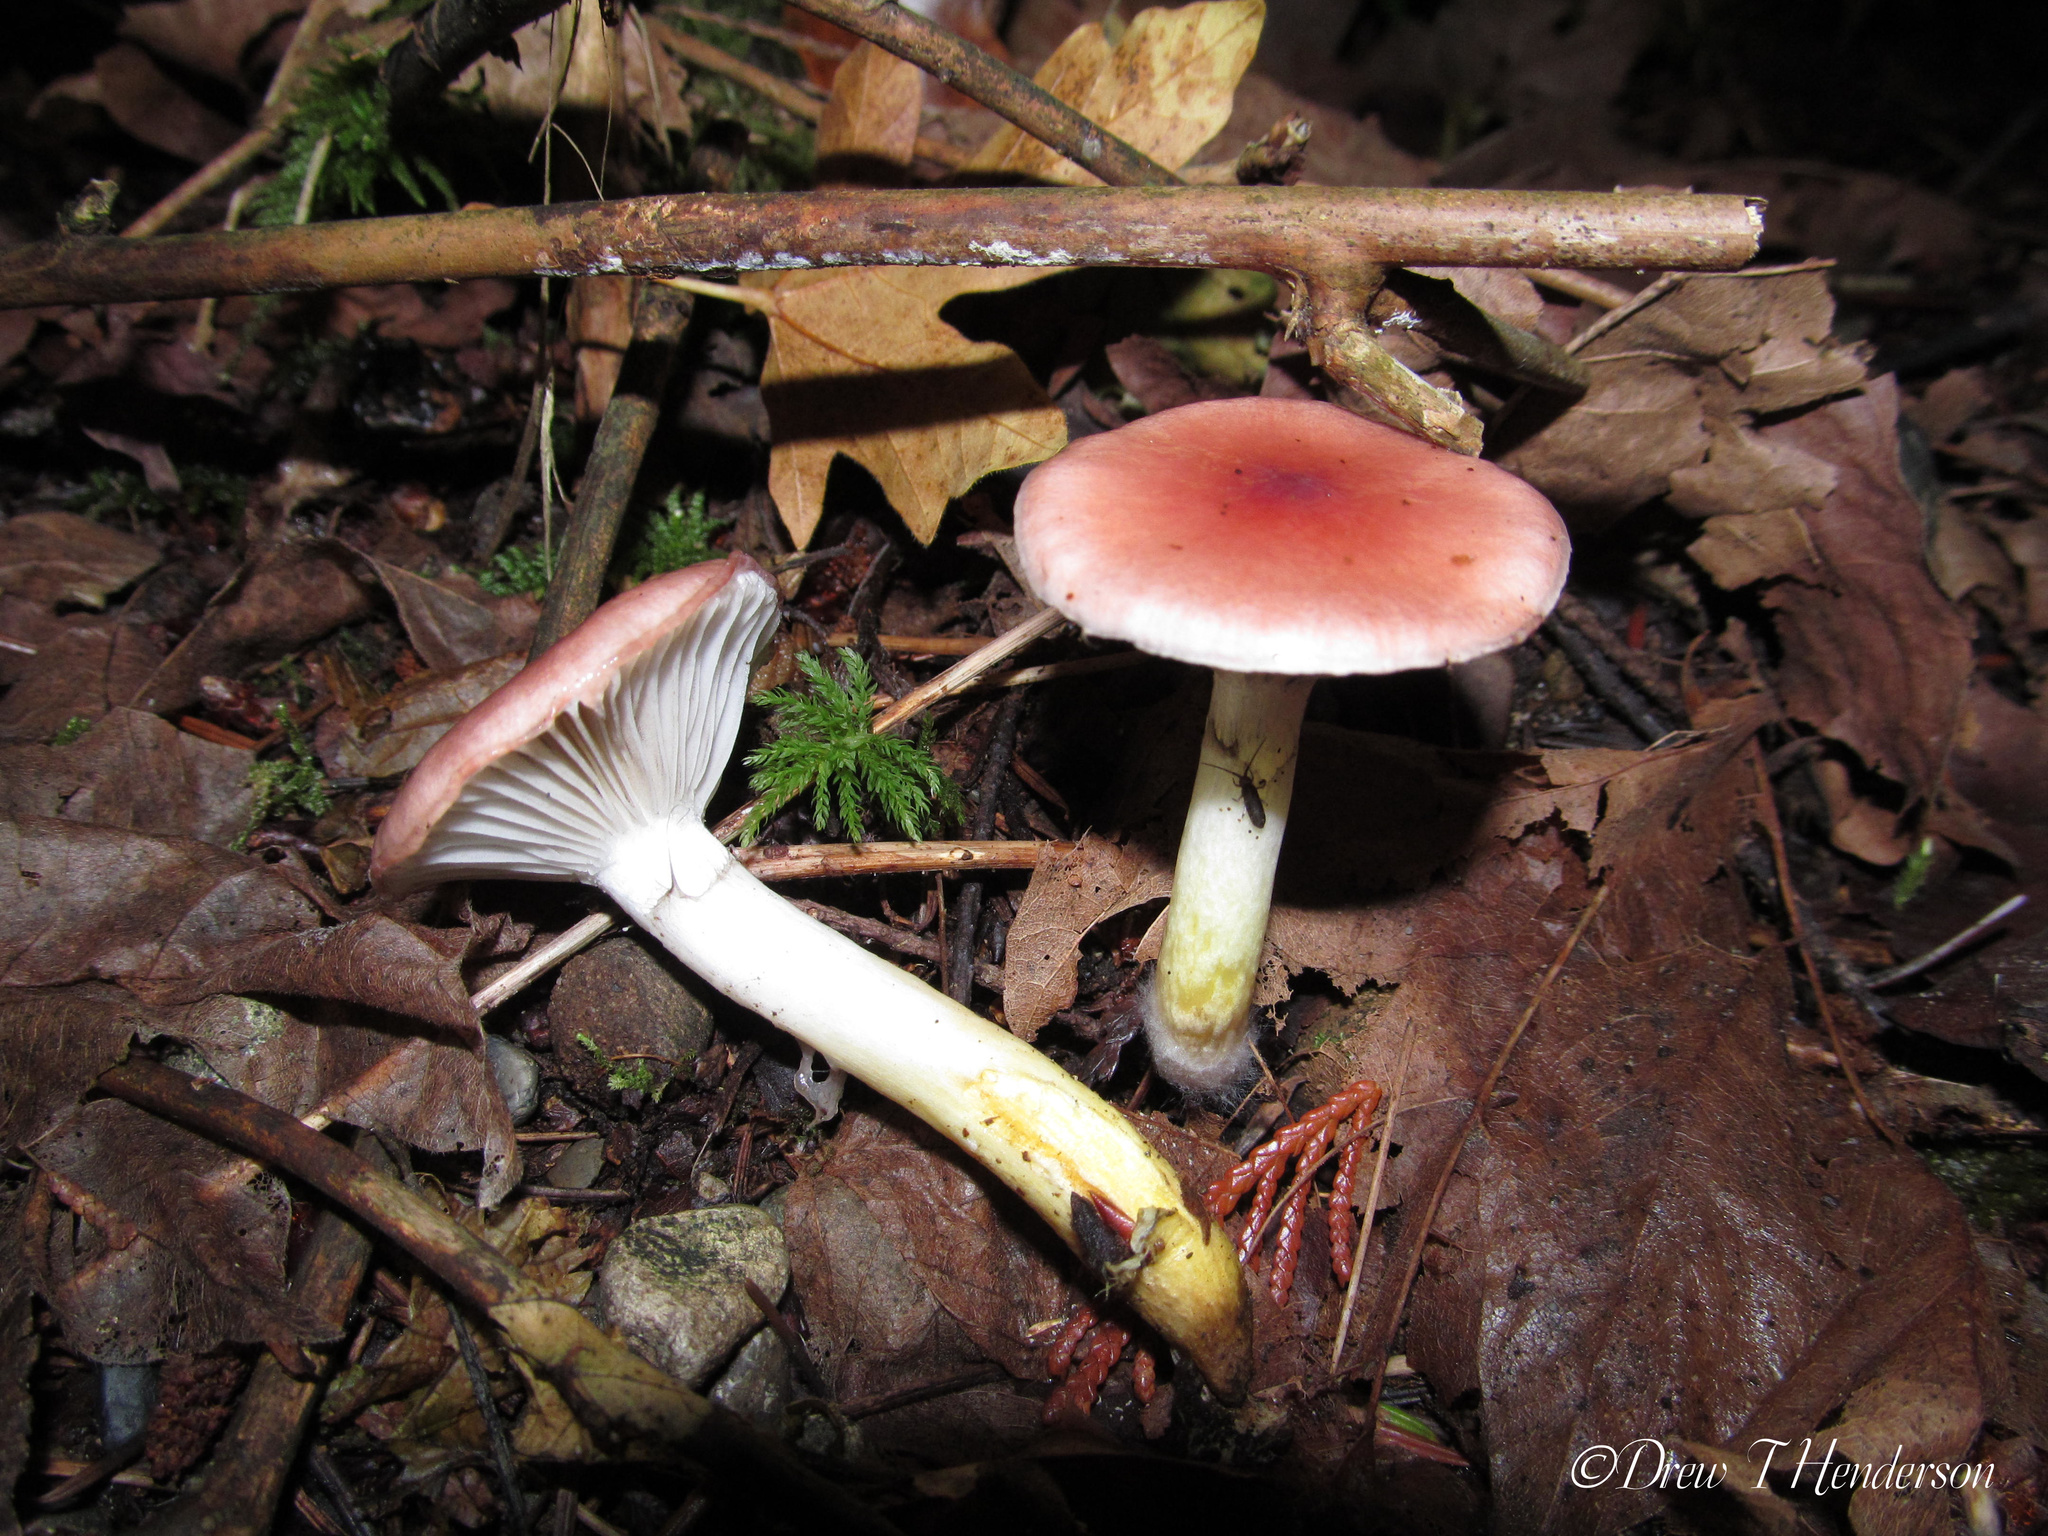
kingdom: Fungi
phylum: Basidiomycota
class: Agaricomycetes
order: Boletales
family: Gomphidiaceae
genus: Gomphidius
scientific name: Gomphidius subroseus
